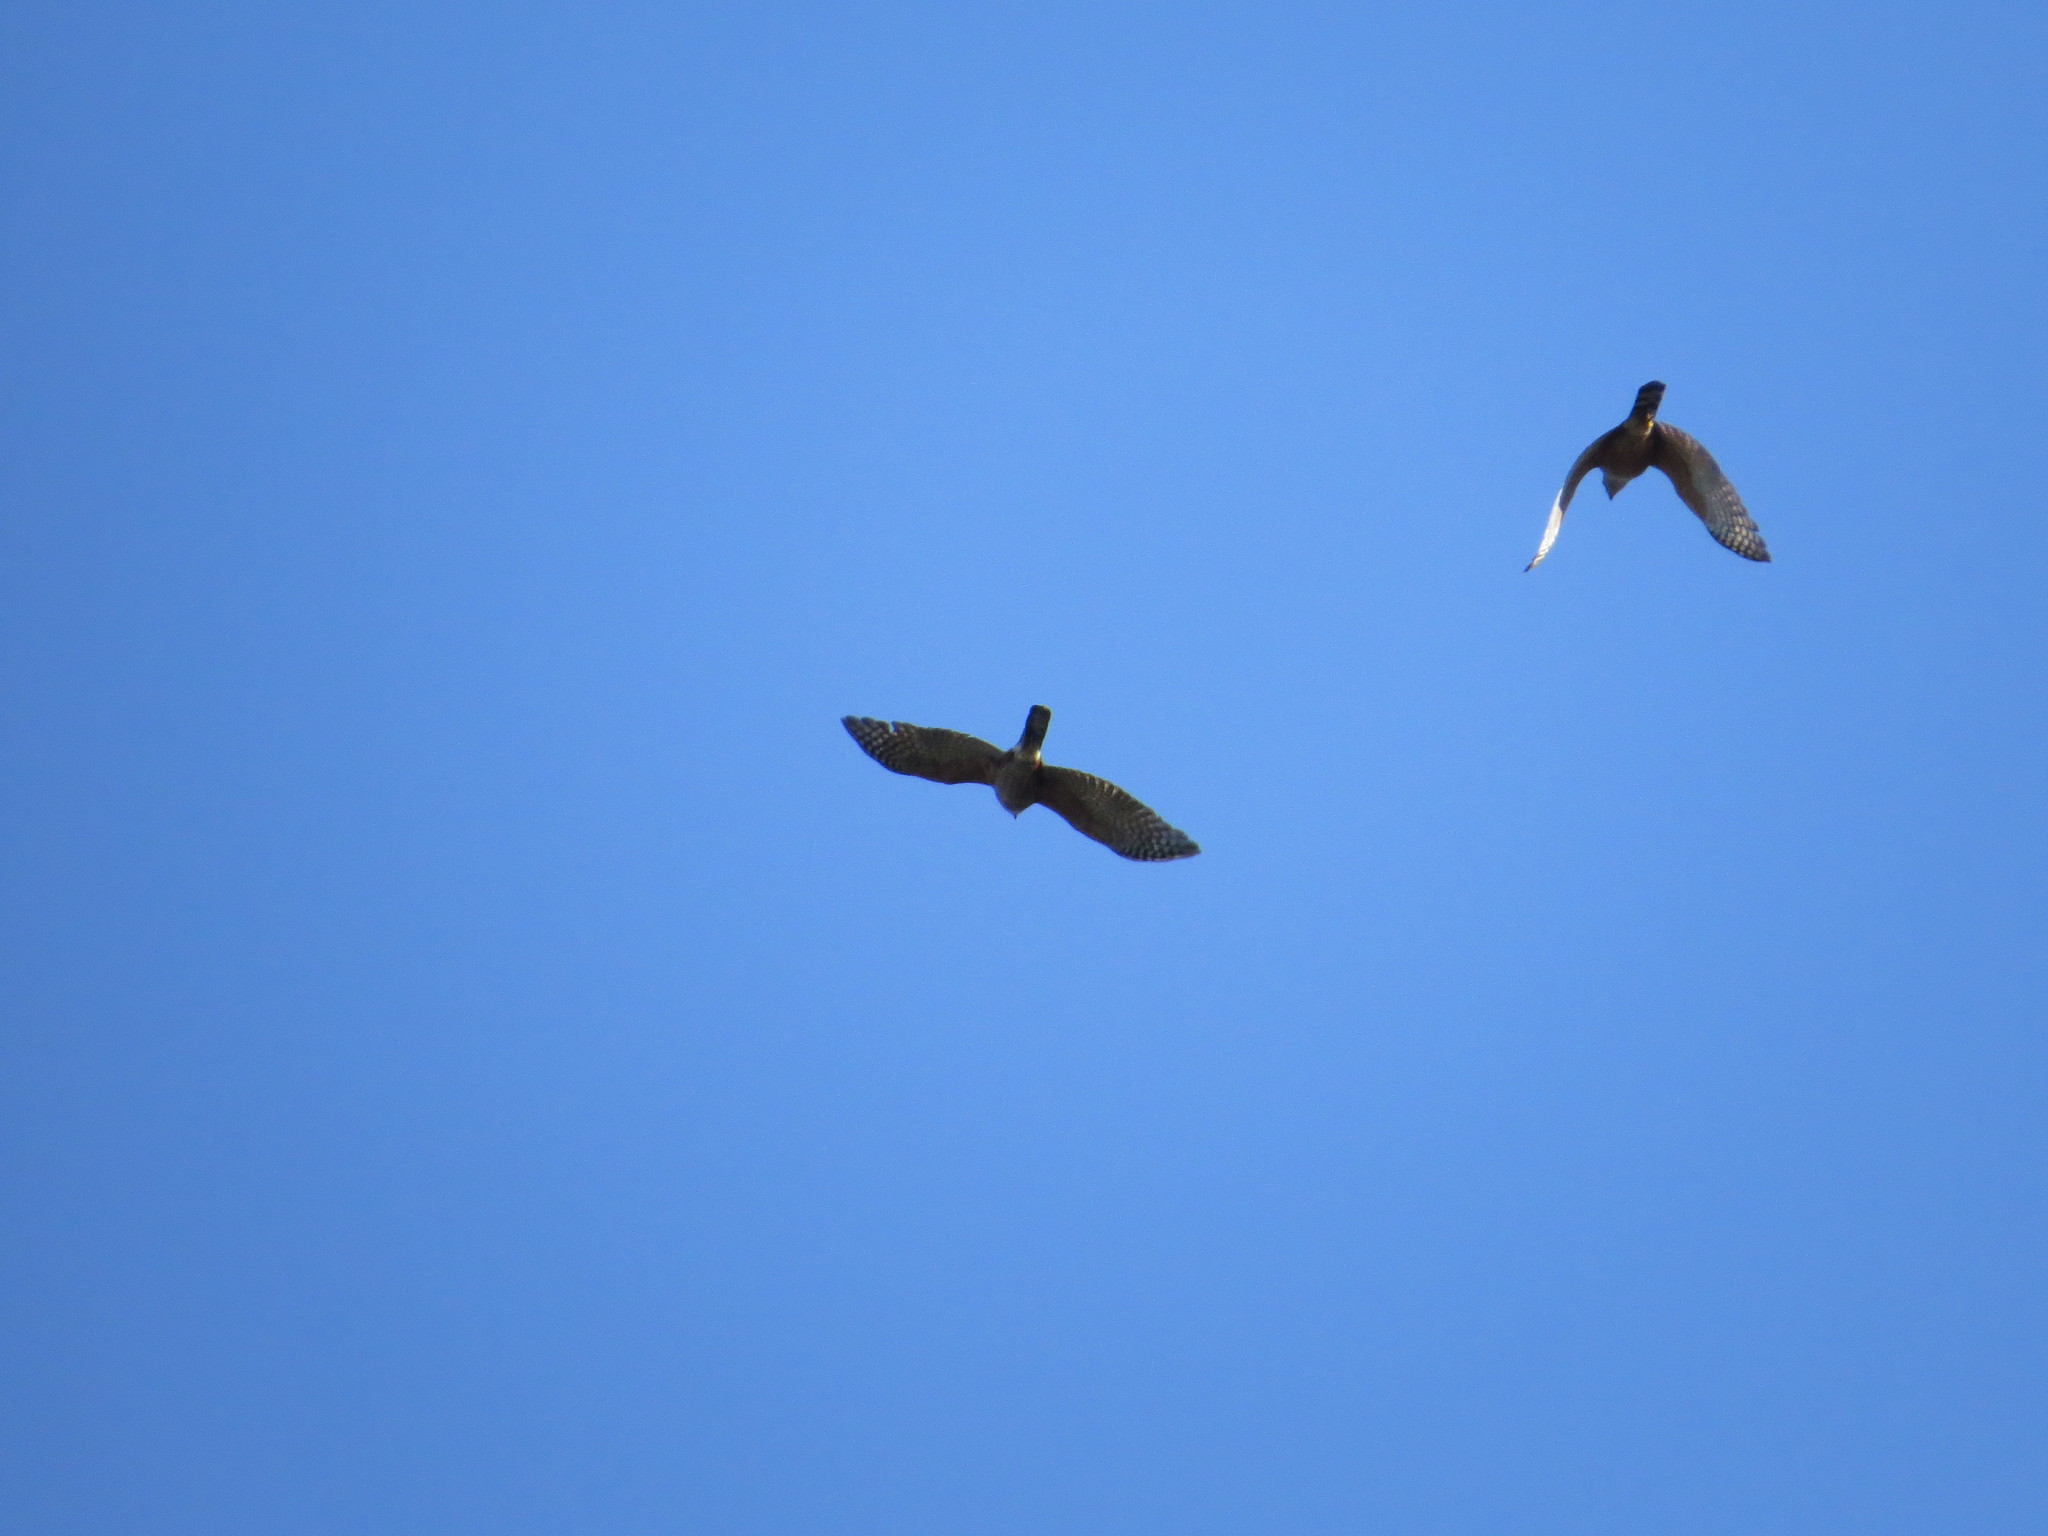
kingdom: Animalia
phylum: Chordata
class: Aves
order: Accipitriformes
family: Accipitridae
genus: Accipiter
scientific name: Accipiter bicolor
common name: Bicolored hawk
